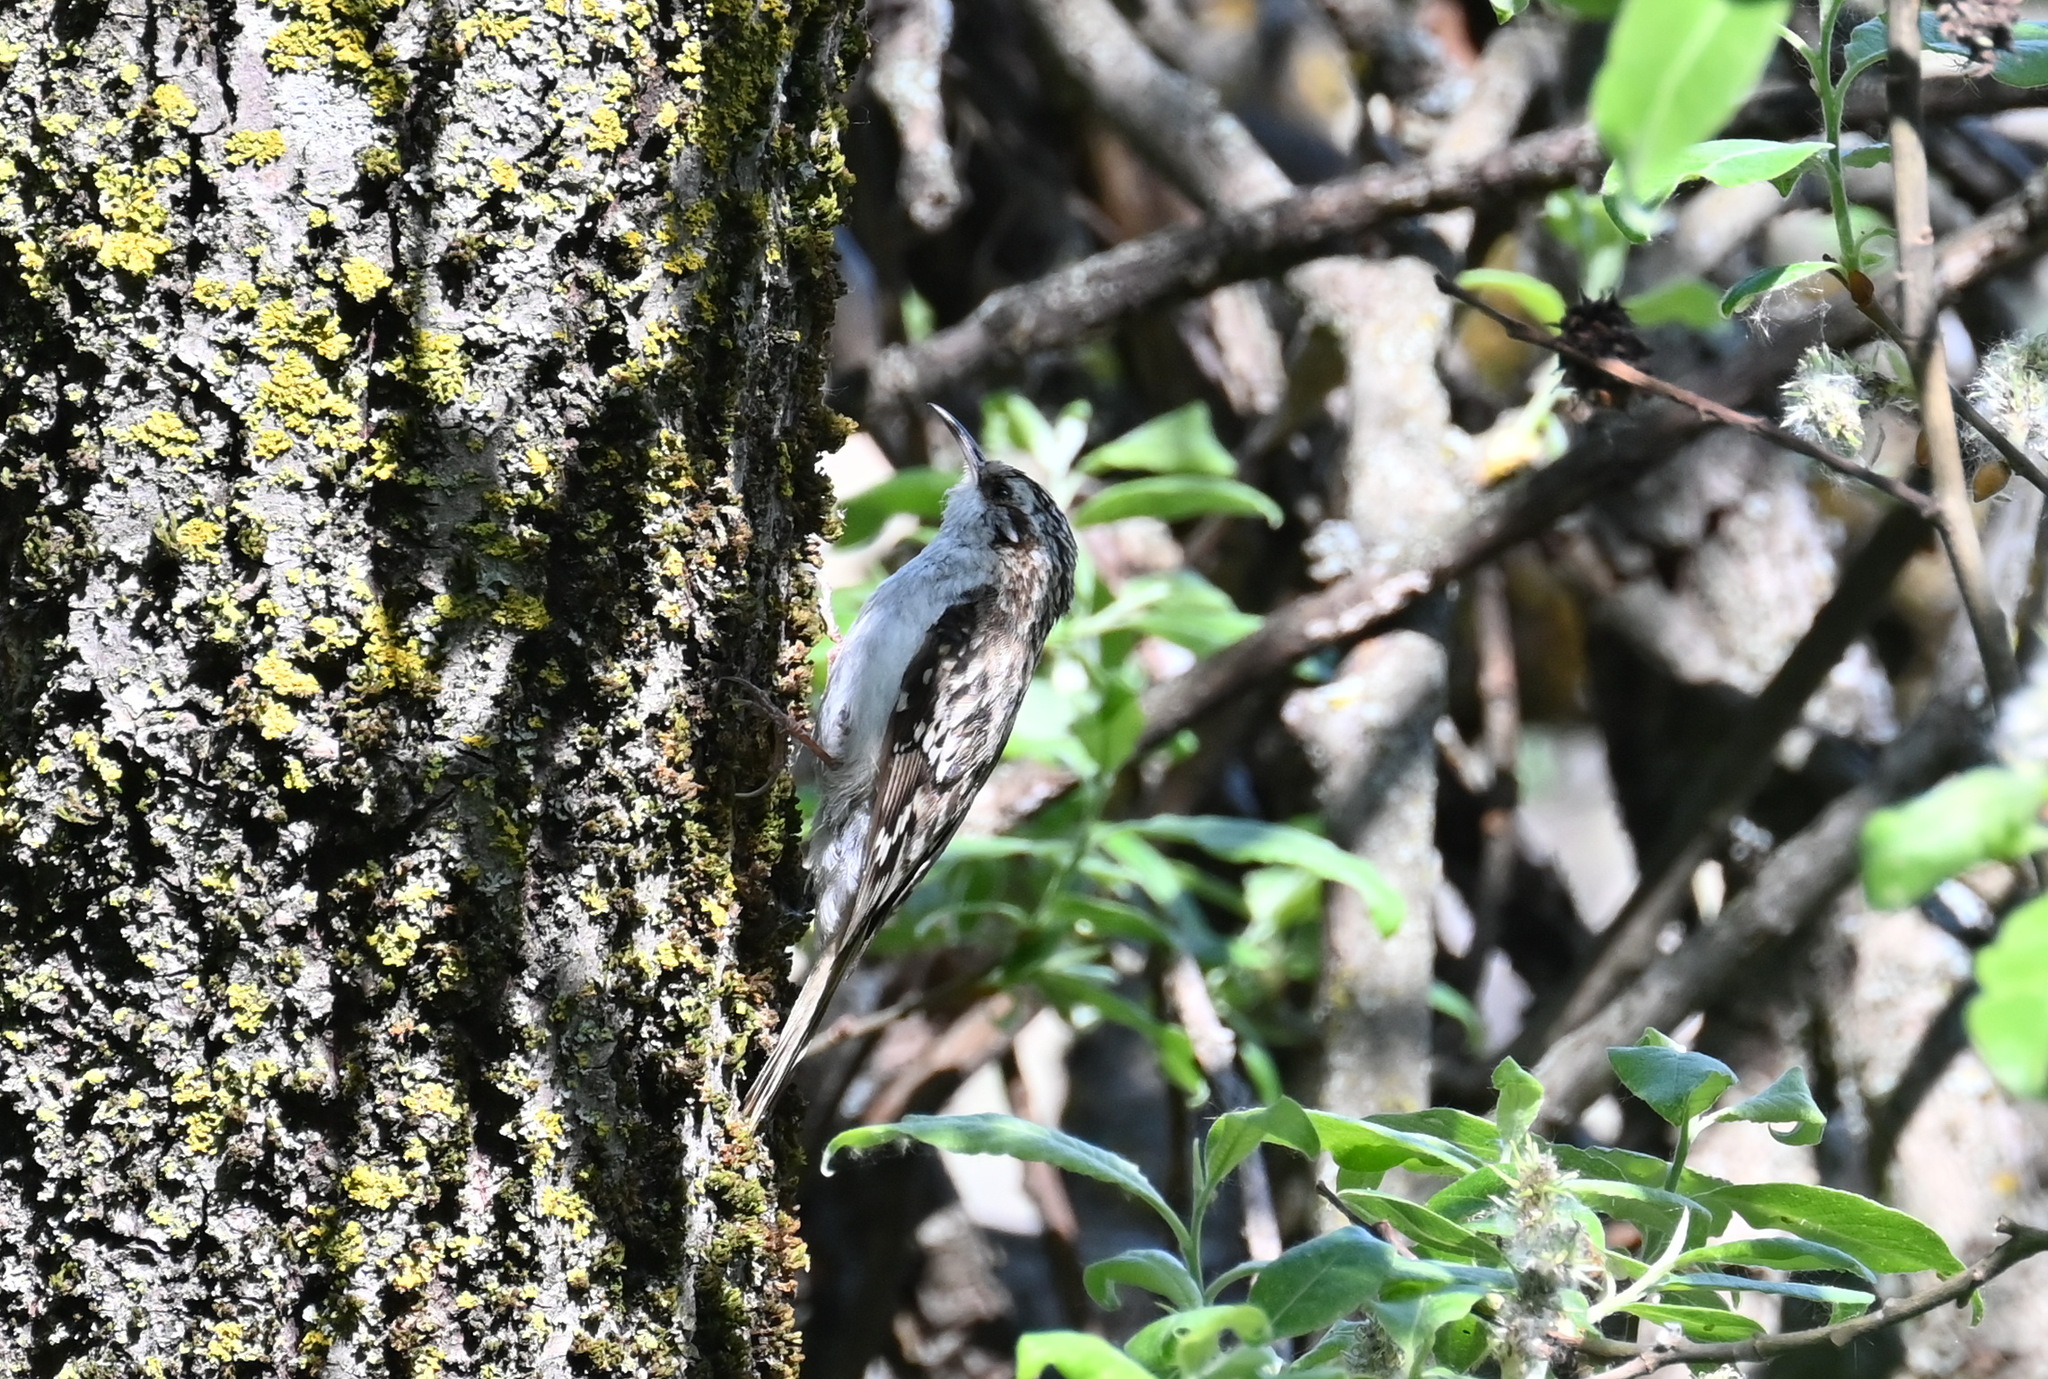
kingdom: Animalia
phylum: Chordata
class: Aves
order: Passeriformes
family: Certhiidae
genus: Certhia
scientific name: Certhia familiaris
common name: Eurasian treecreeper
